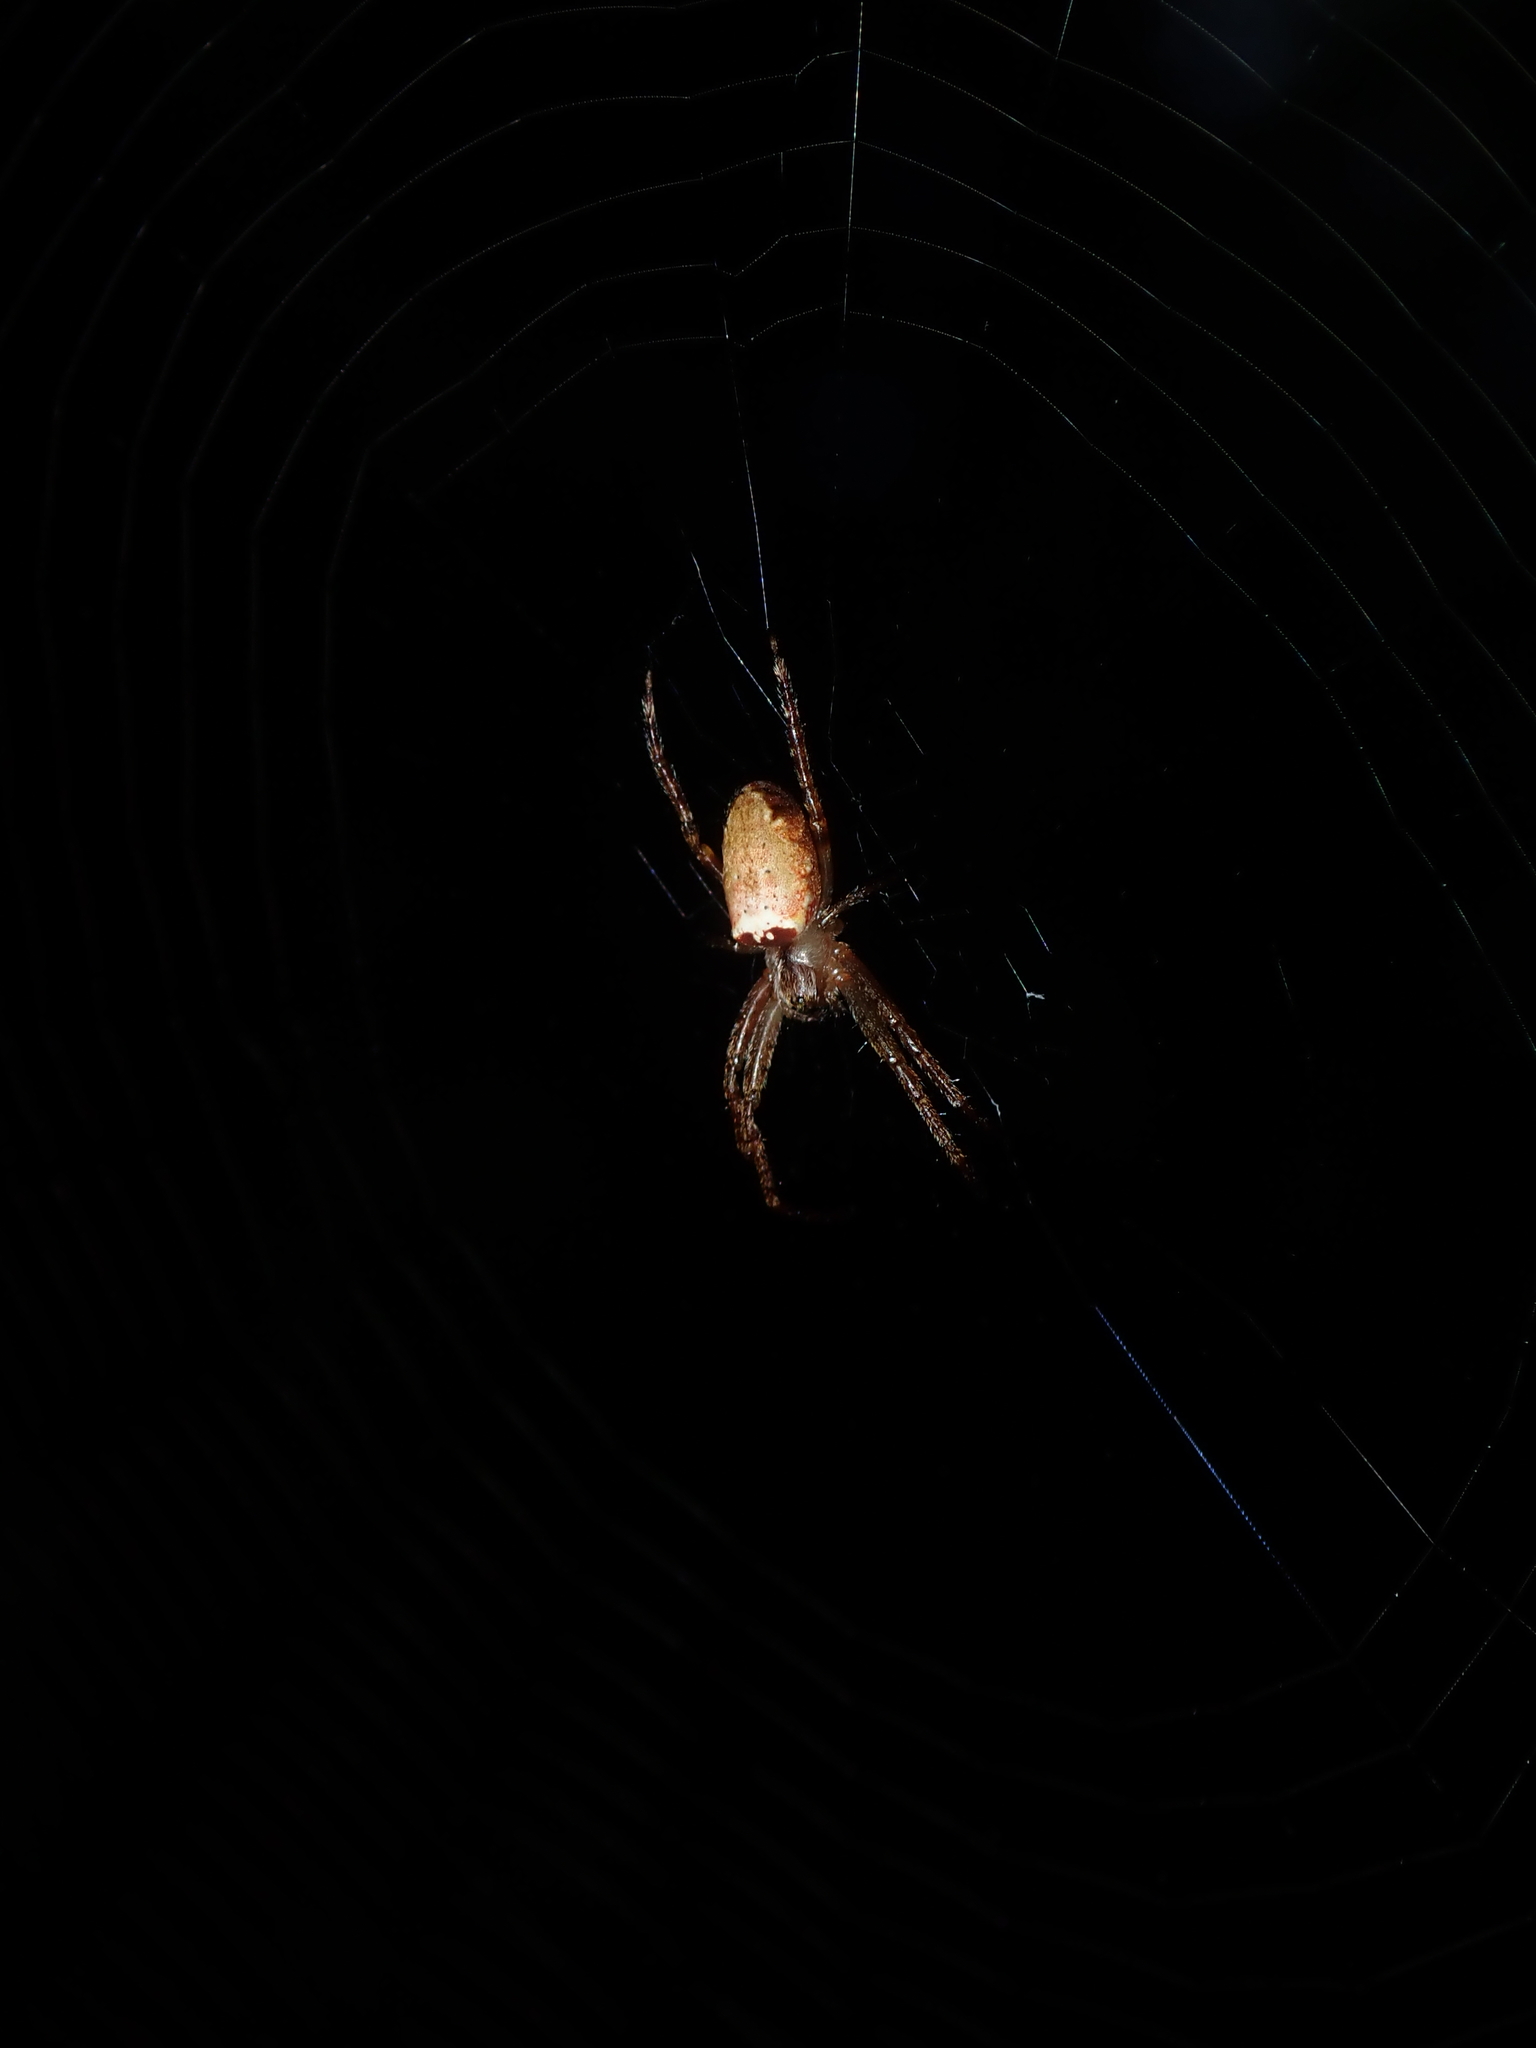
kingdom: Animalia
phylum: Arthropoda
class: Arachnida
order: Araneae
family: Araneidae
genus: Plebs
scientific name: Plebs eburnus
